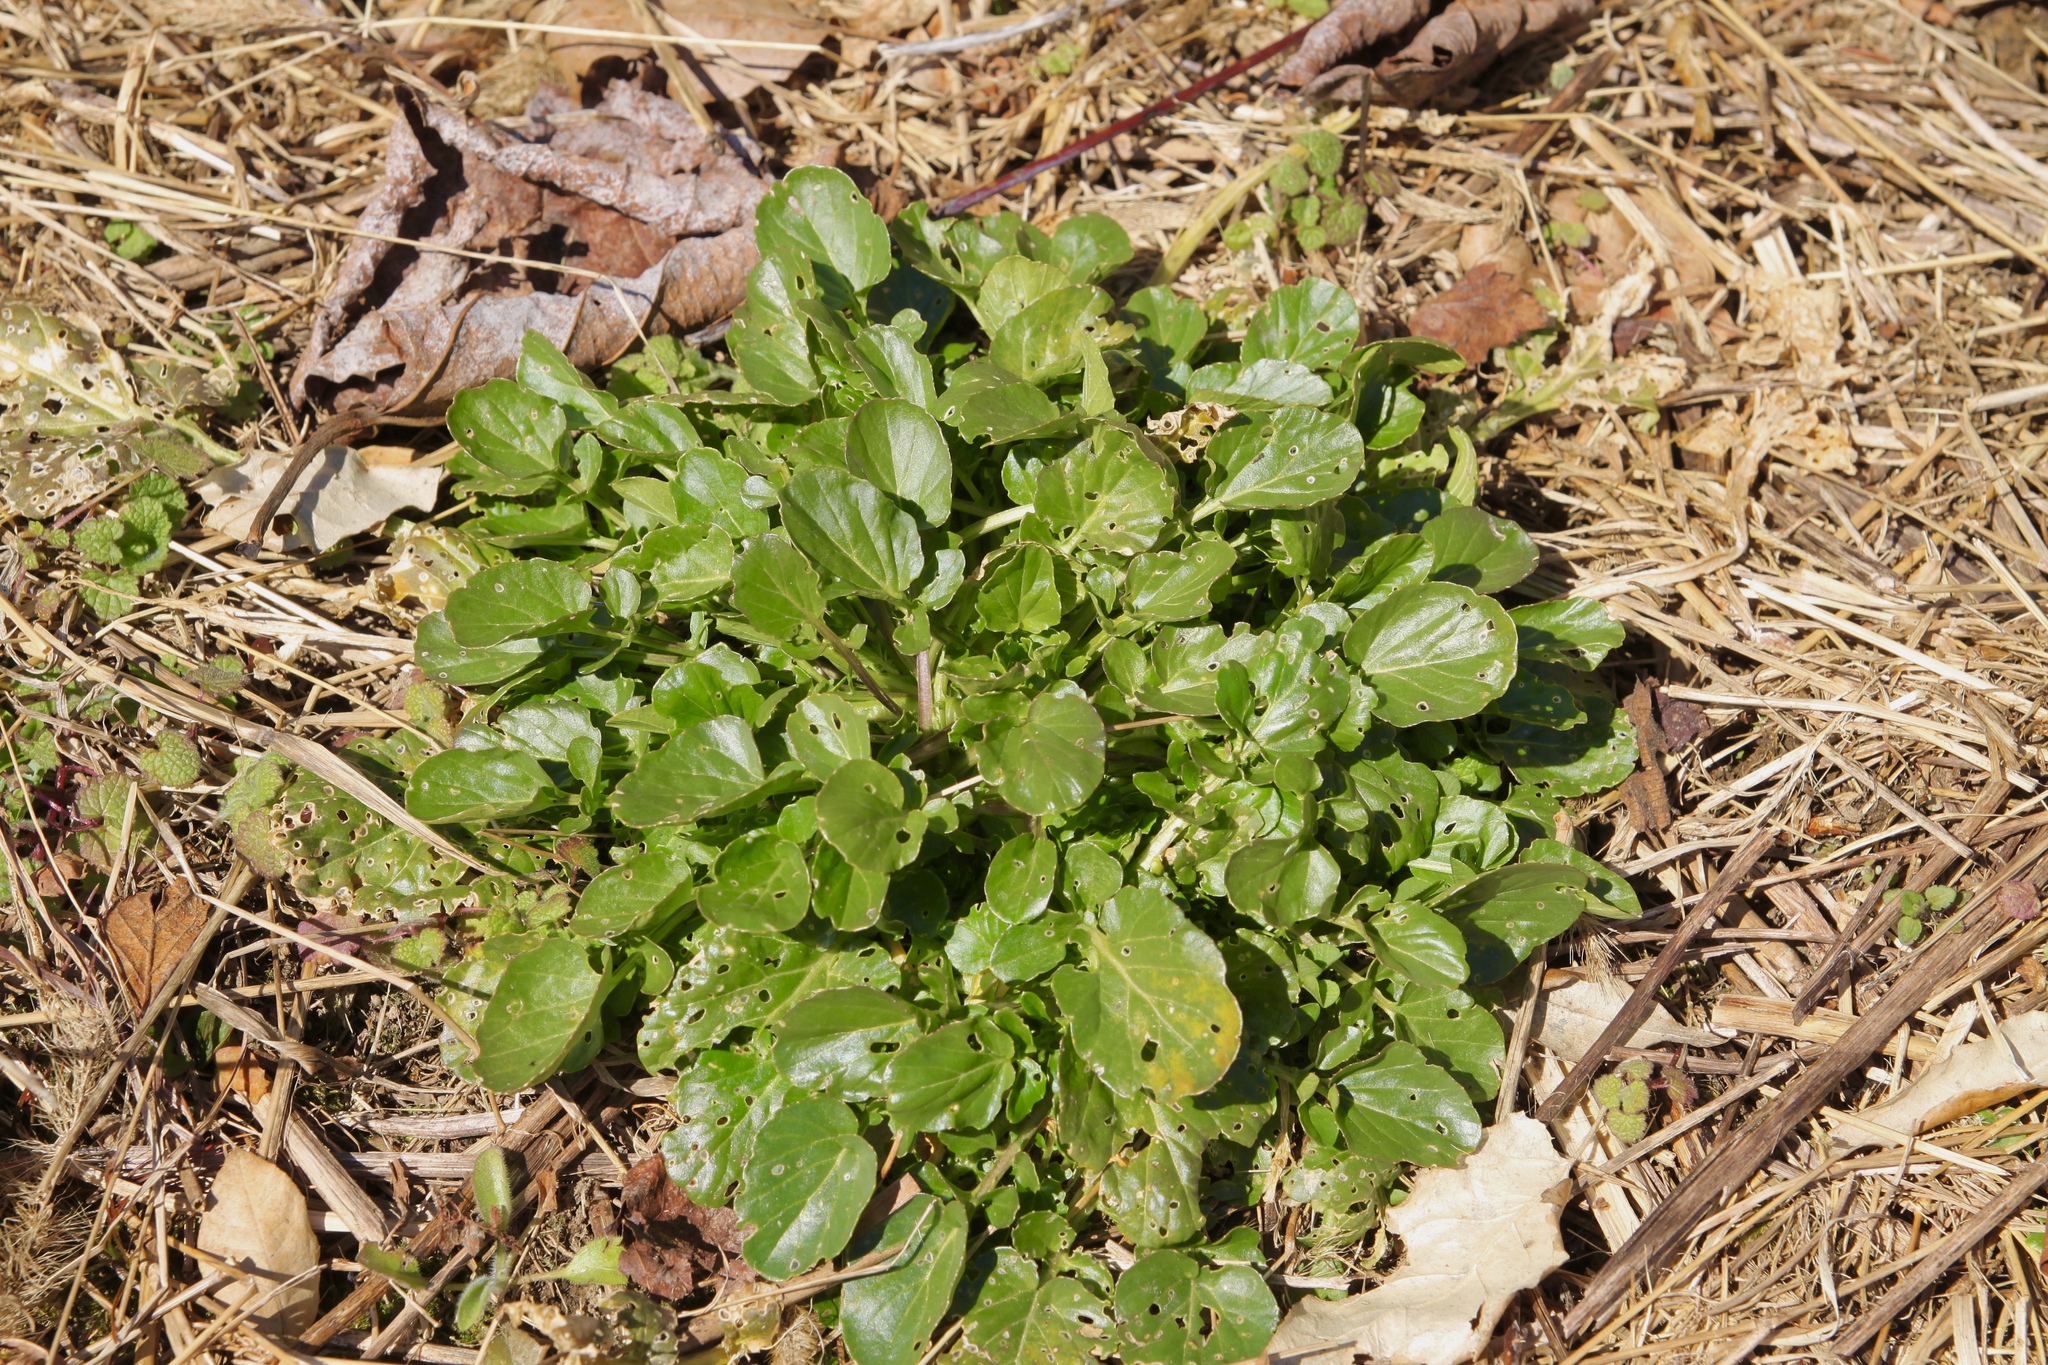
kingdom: Plantae
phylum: Tracheophyta
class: Magnoliopsida
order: Brassicales
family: Brassicaceae
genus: Barbarea
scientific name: Barbarea vulgaris
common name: Cressy-greens
